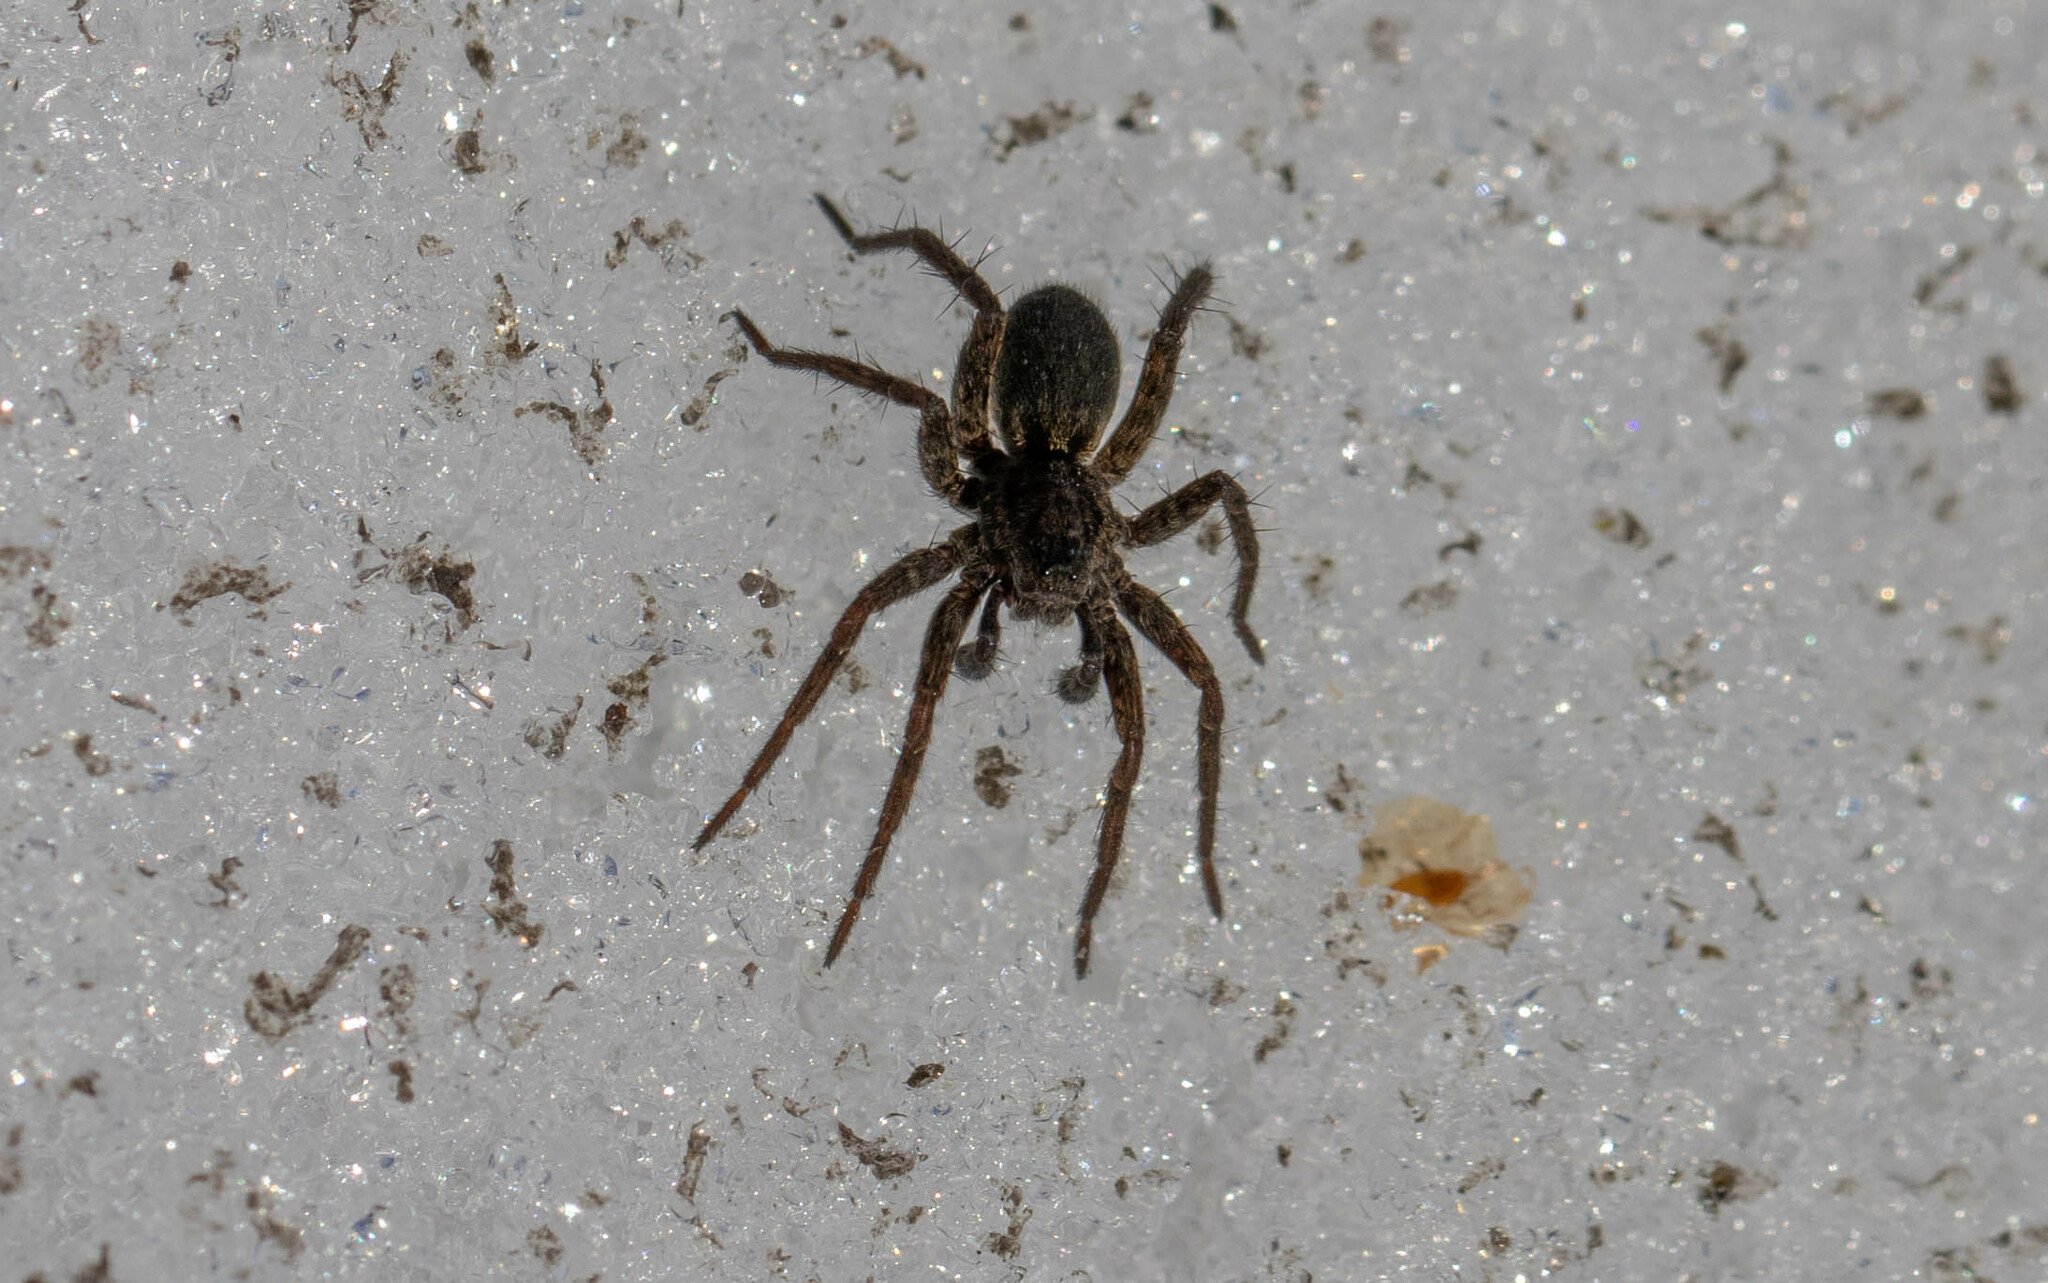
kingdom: Animalia
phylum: Arthropoda
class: Arachnida
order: Araneae
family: Lycosidae
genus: Pardosa
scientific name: Pardosa
